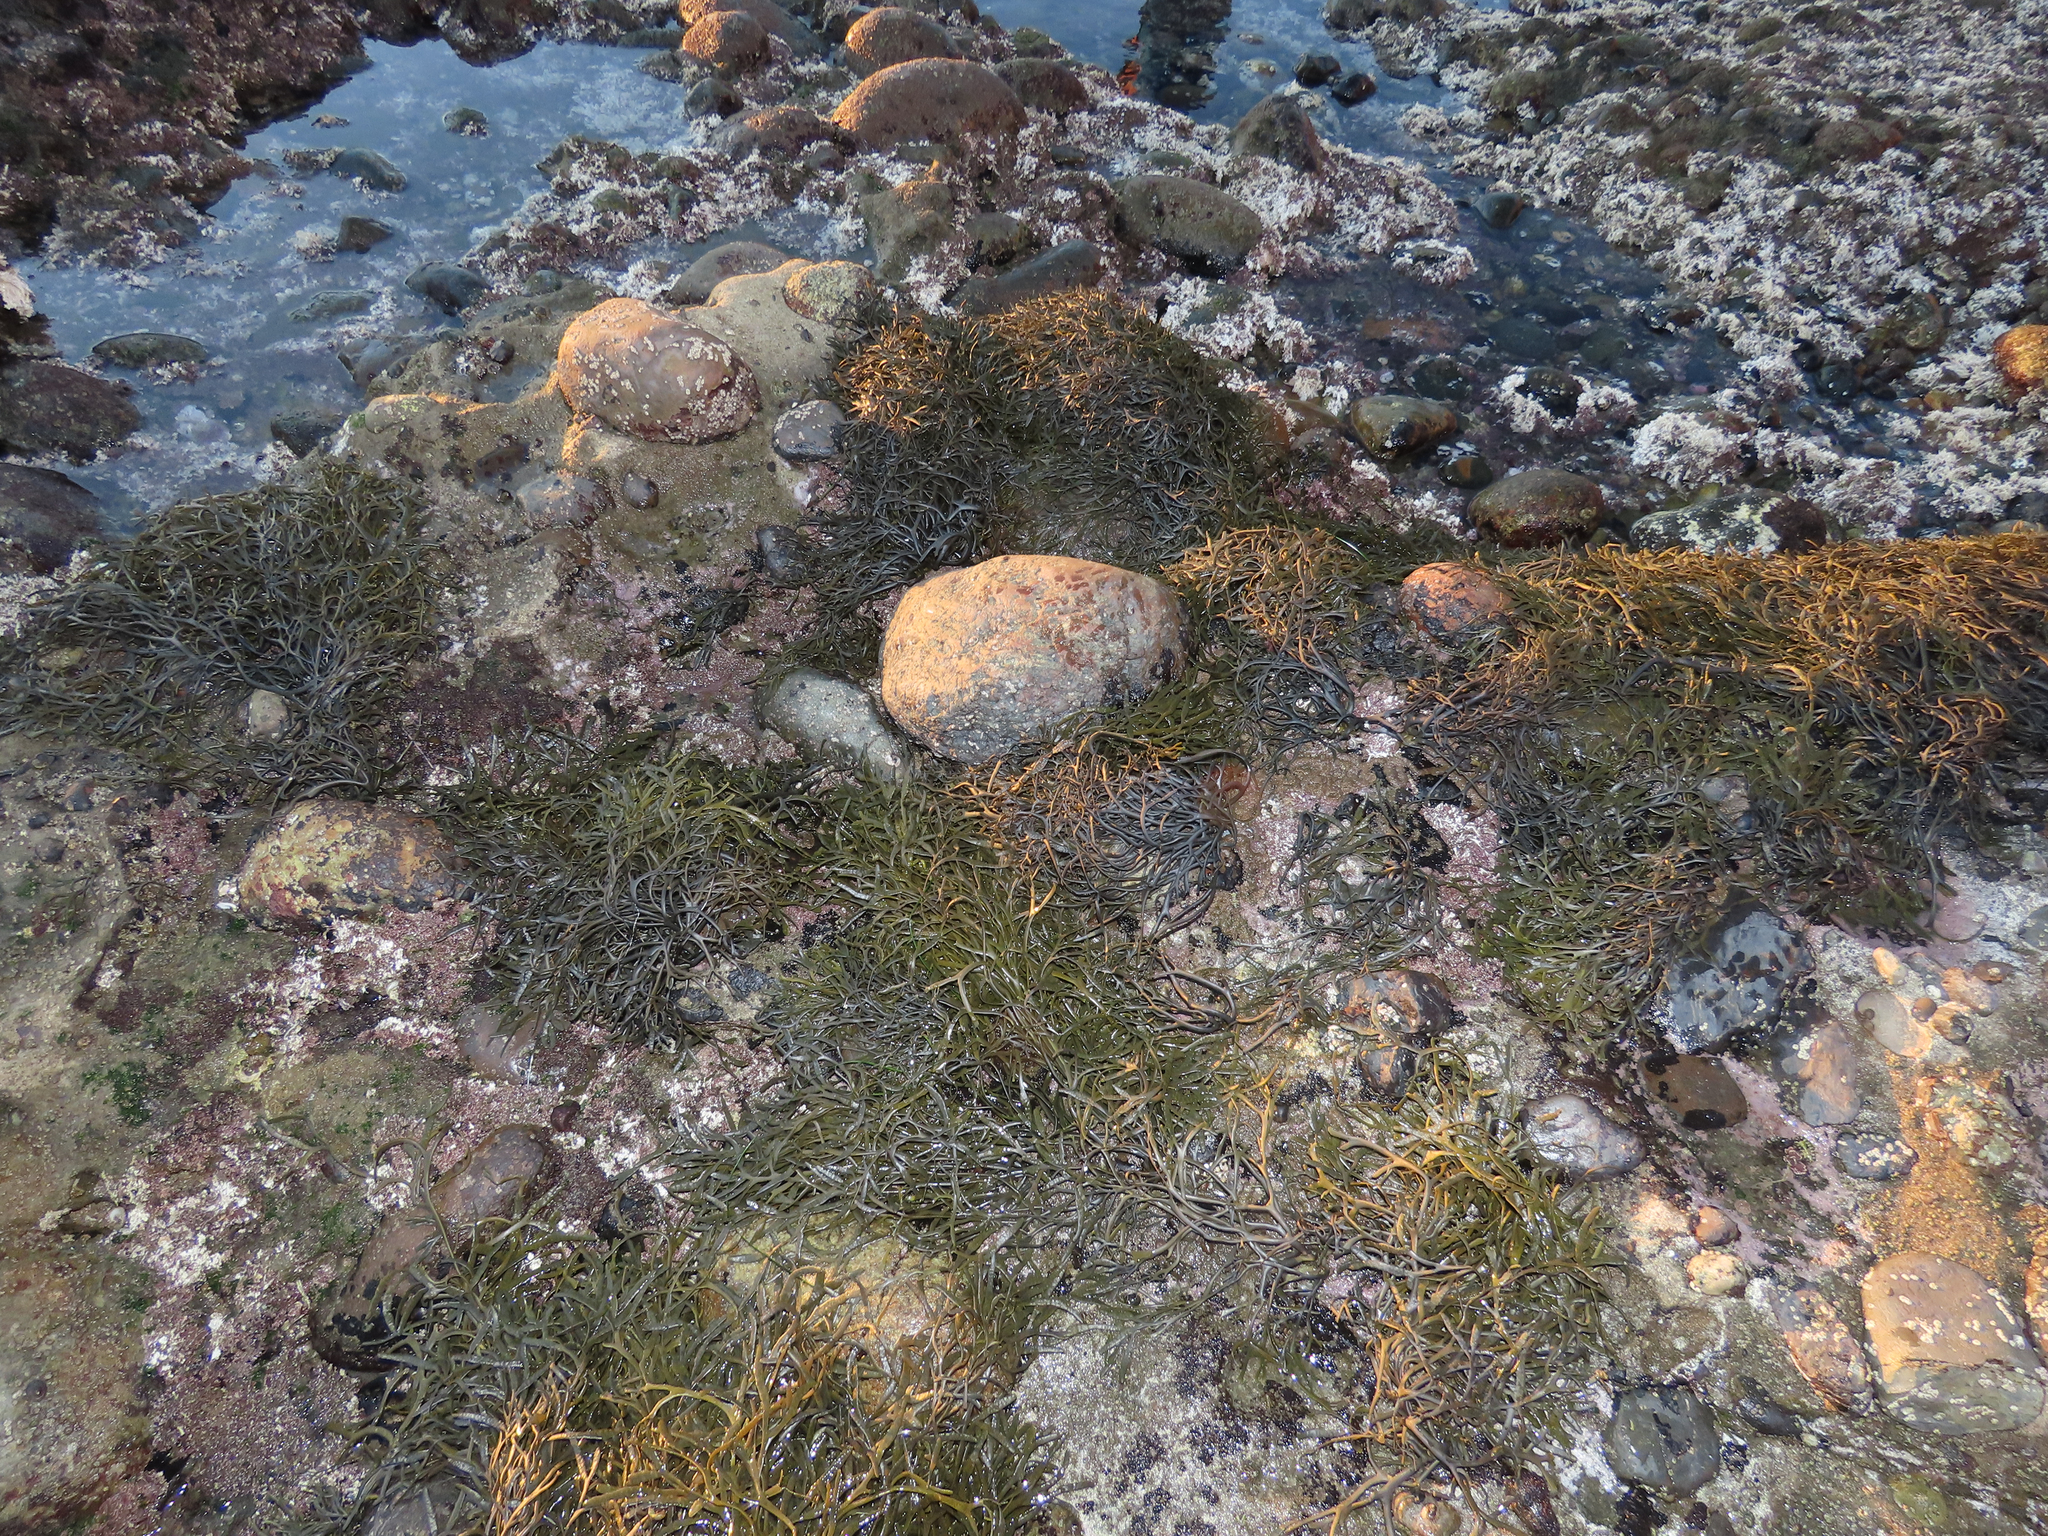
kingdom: Plantae
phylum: Chlorophyta
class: Ulvophyceae
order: Bryopsidales
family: Codiaceae
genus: Codium
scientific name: Codium fragile
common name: Dead man's fingers
